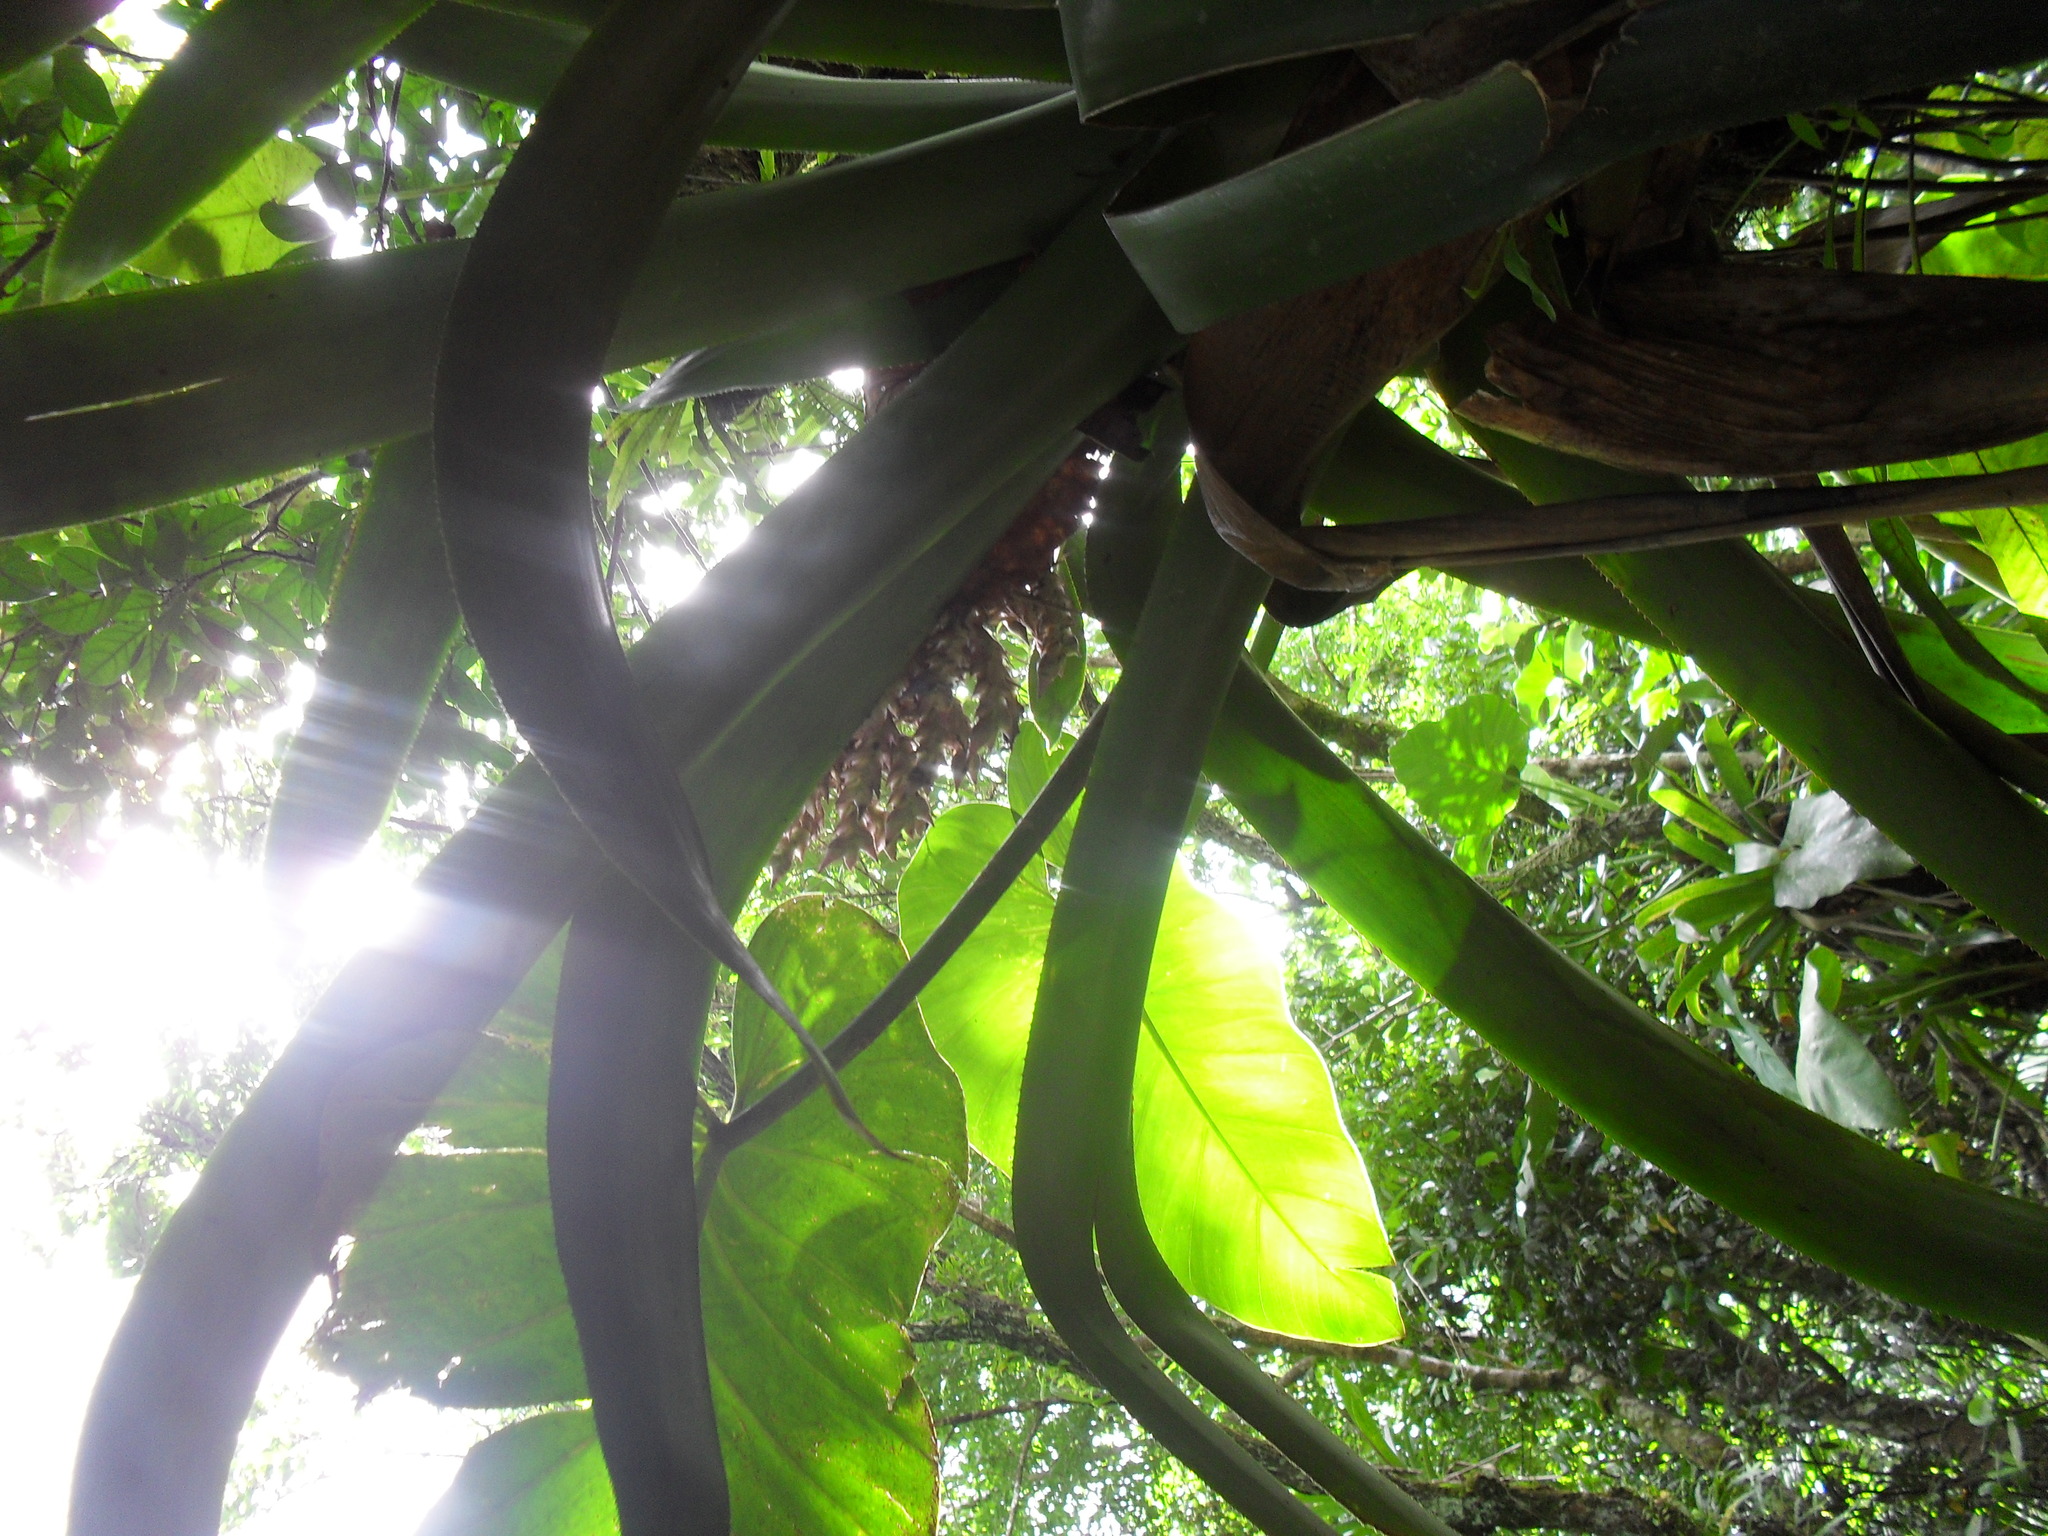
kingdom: Plantae
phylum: Tracheophyta
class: Liliopsida
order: Poales
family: Bromeliaceae
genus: Aechmea
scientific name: Aechmea smithiorum
